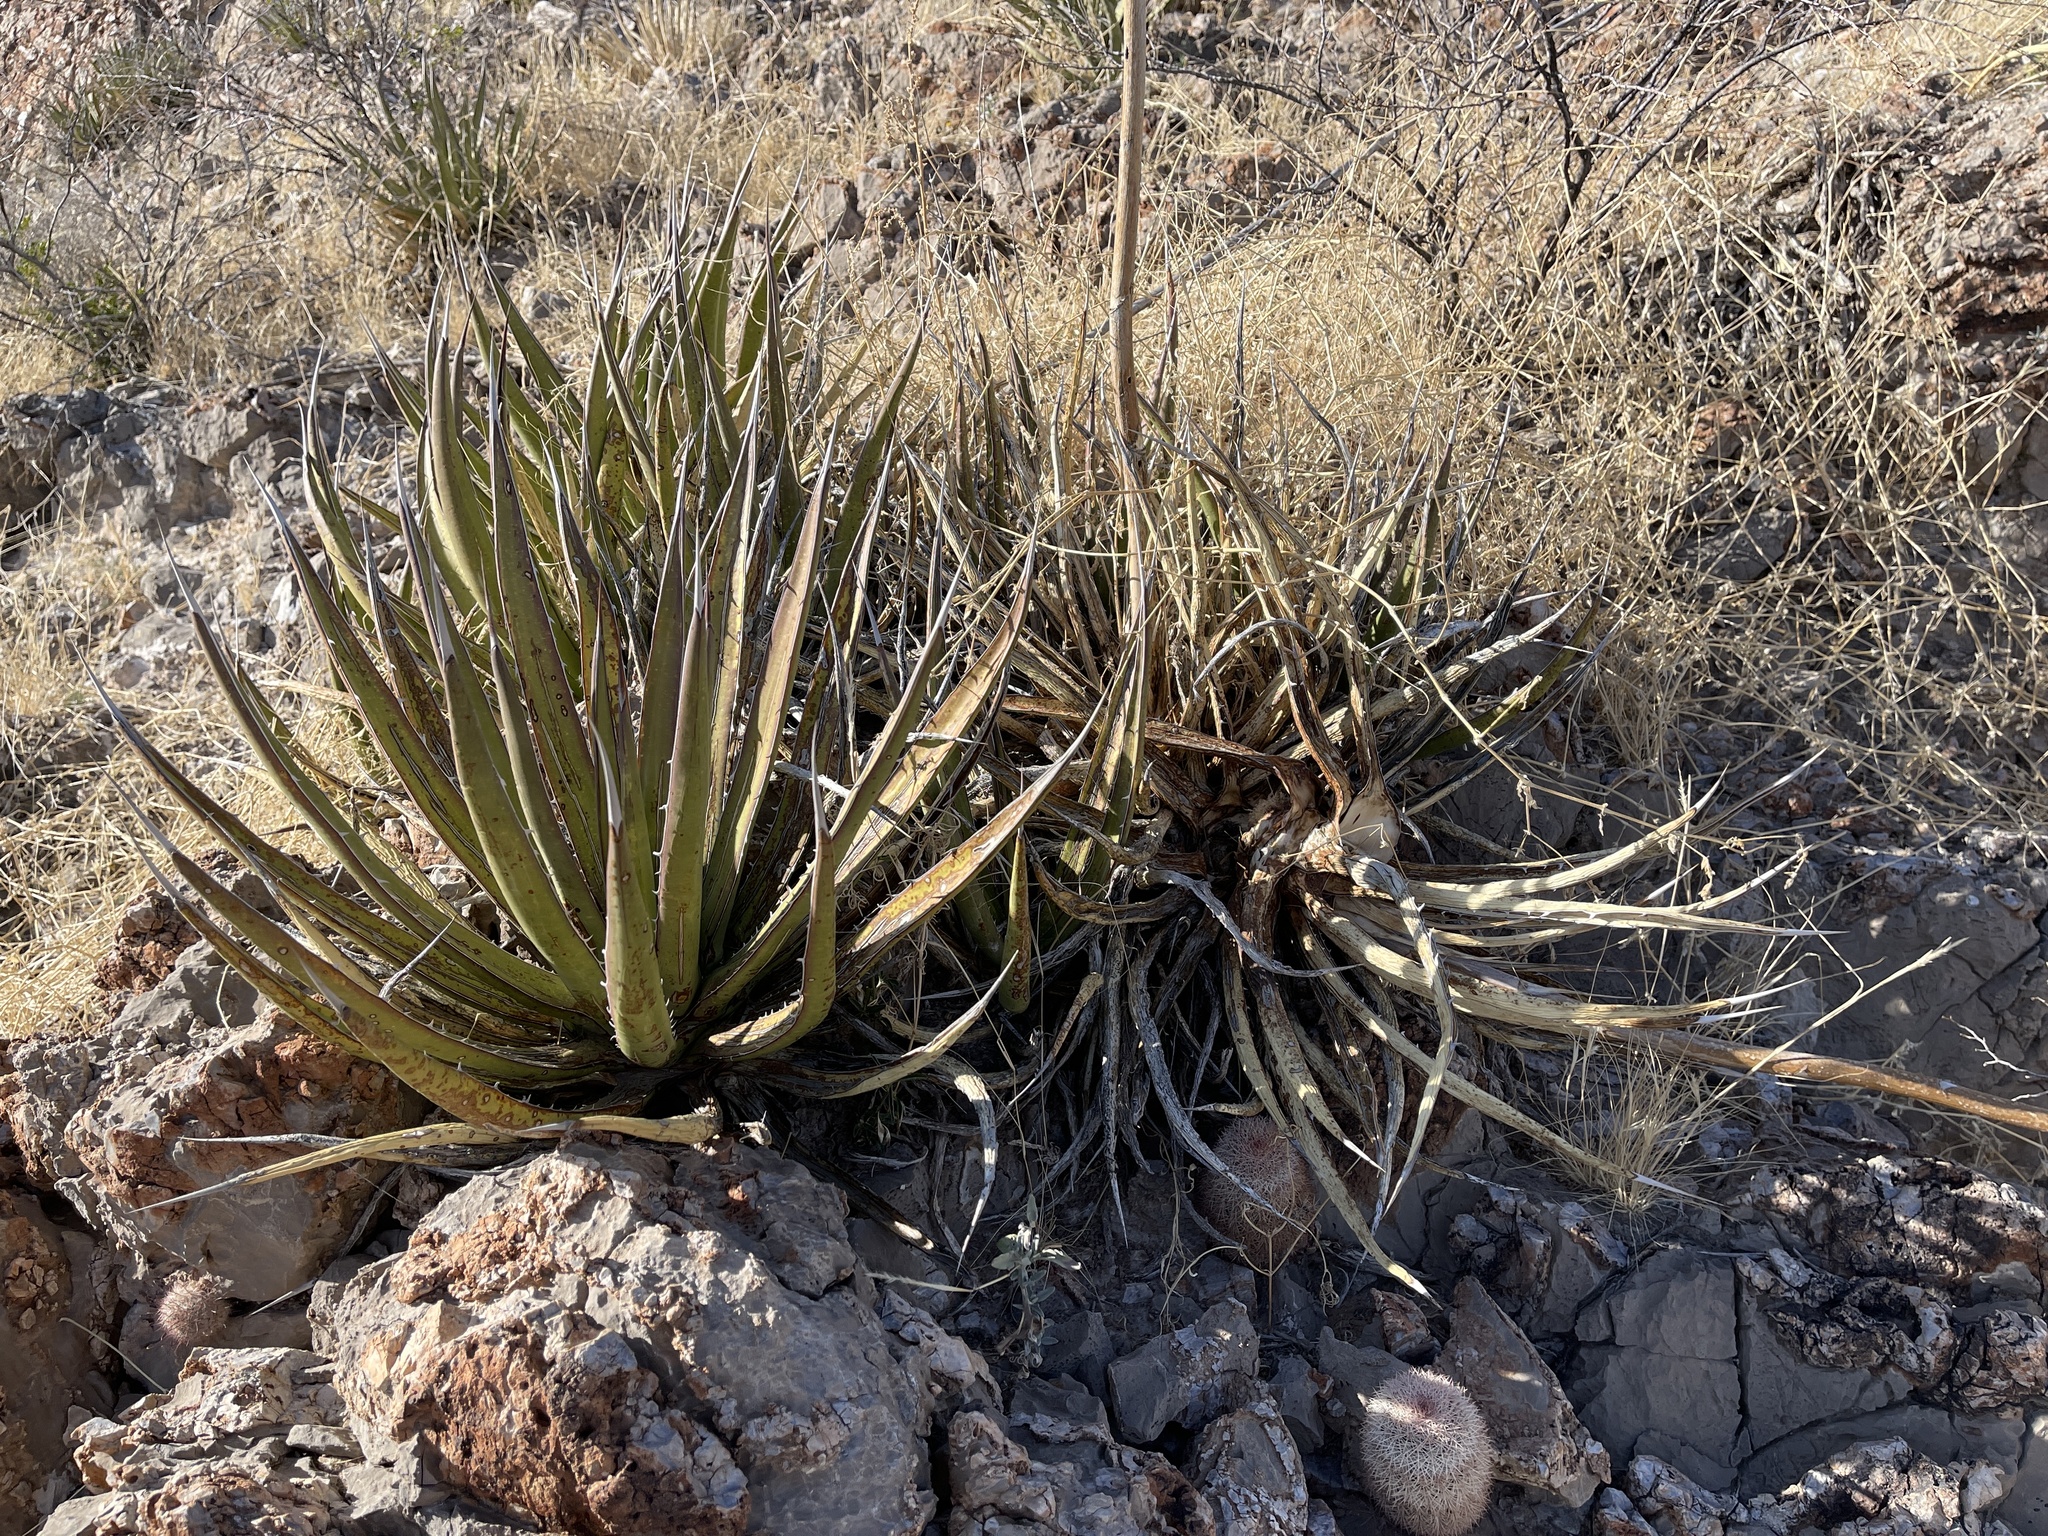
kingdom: Plantae
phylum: Tracheophyta
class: Liliopsida
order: Asparagales
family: Asparagaceae
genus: Agave
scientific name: Agave lechuguilla
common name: Lecheguilla agave
